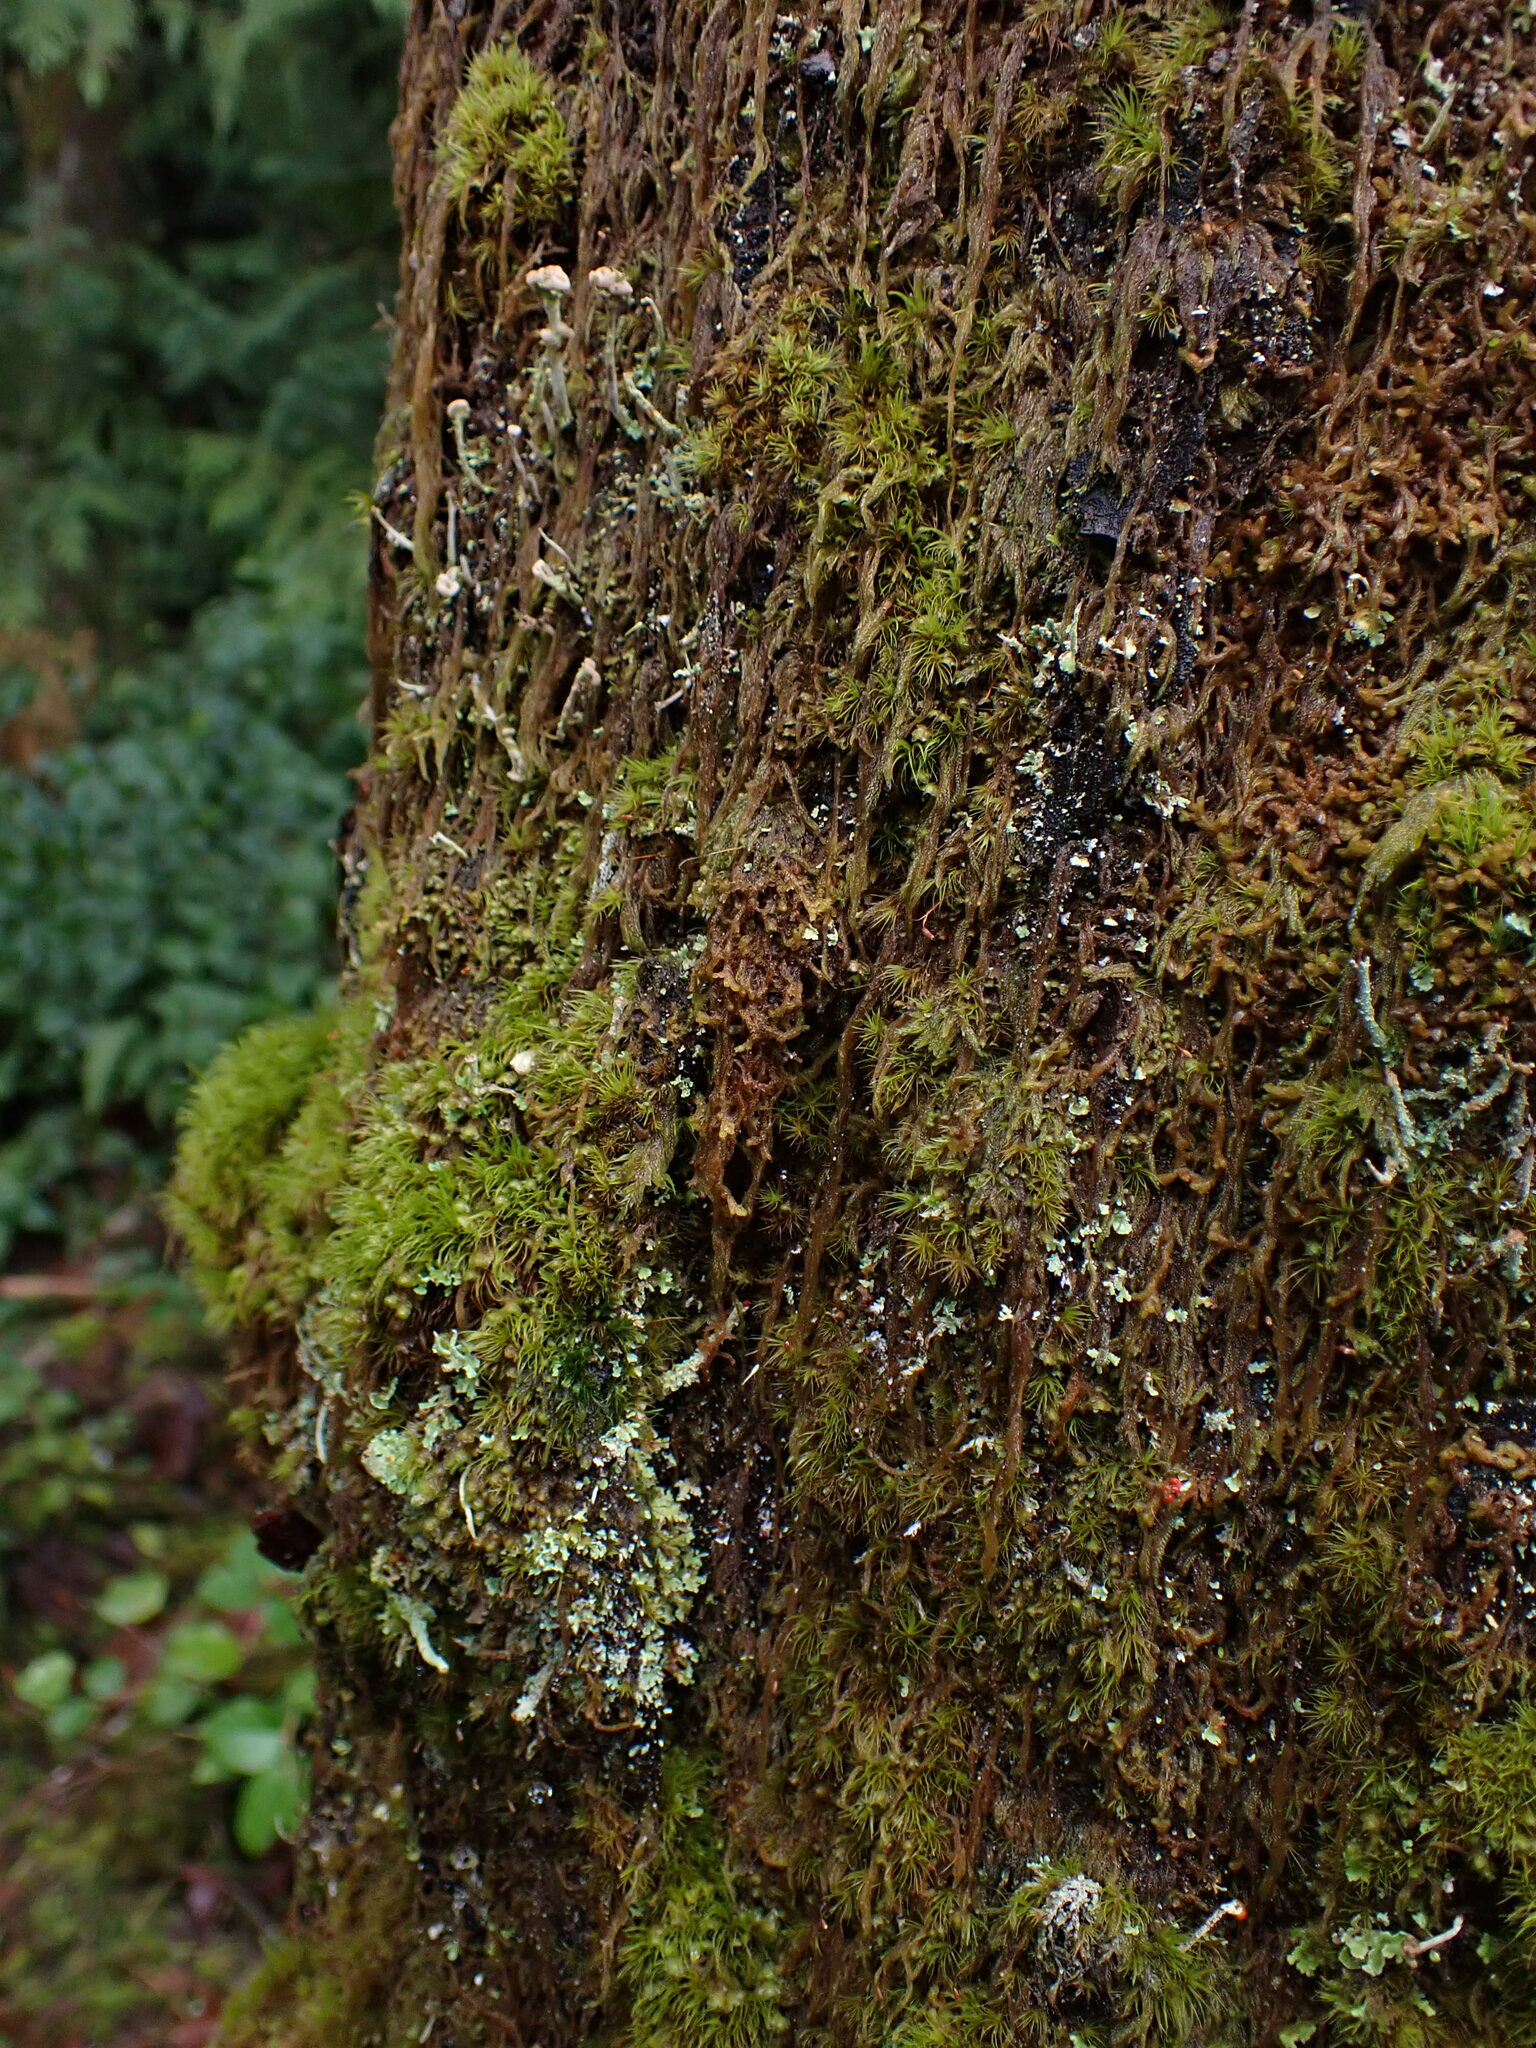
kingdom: Plantae
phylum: Marchantiophyta
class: Jungermanniopsida
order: Ptilidiales
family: Ptilidiaceae
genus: Ptilidium
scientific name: Ptilidium californicum
